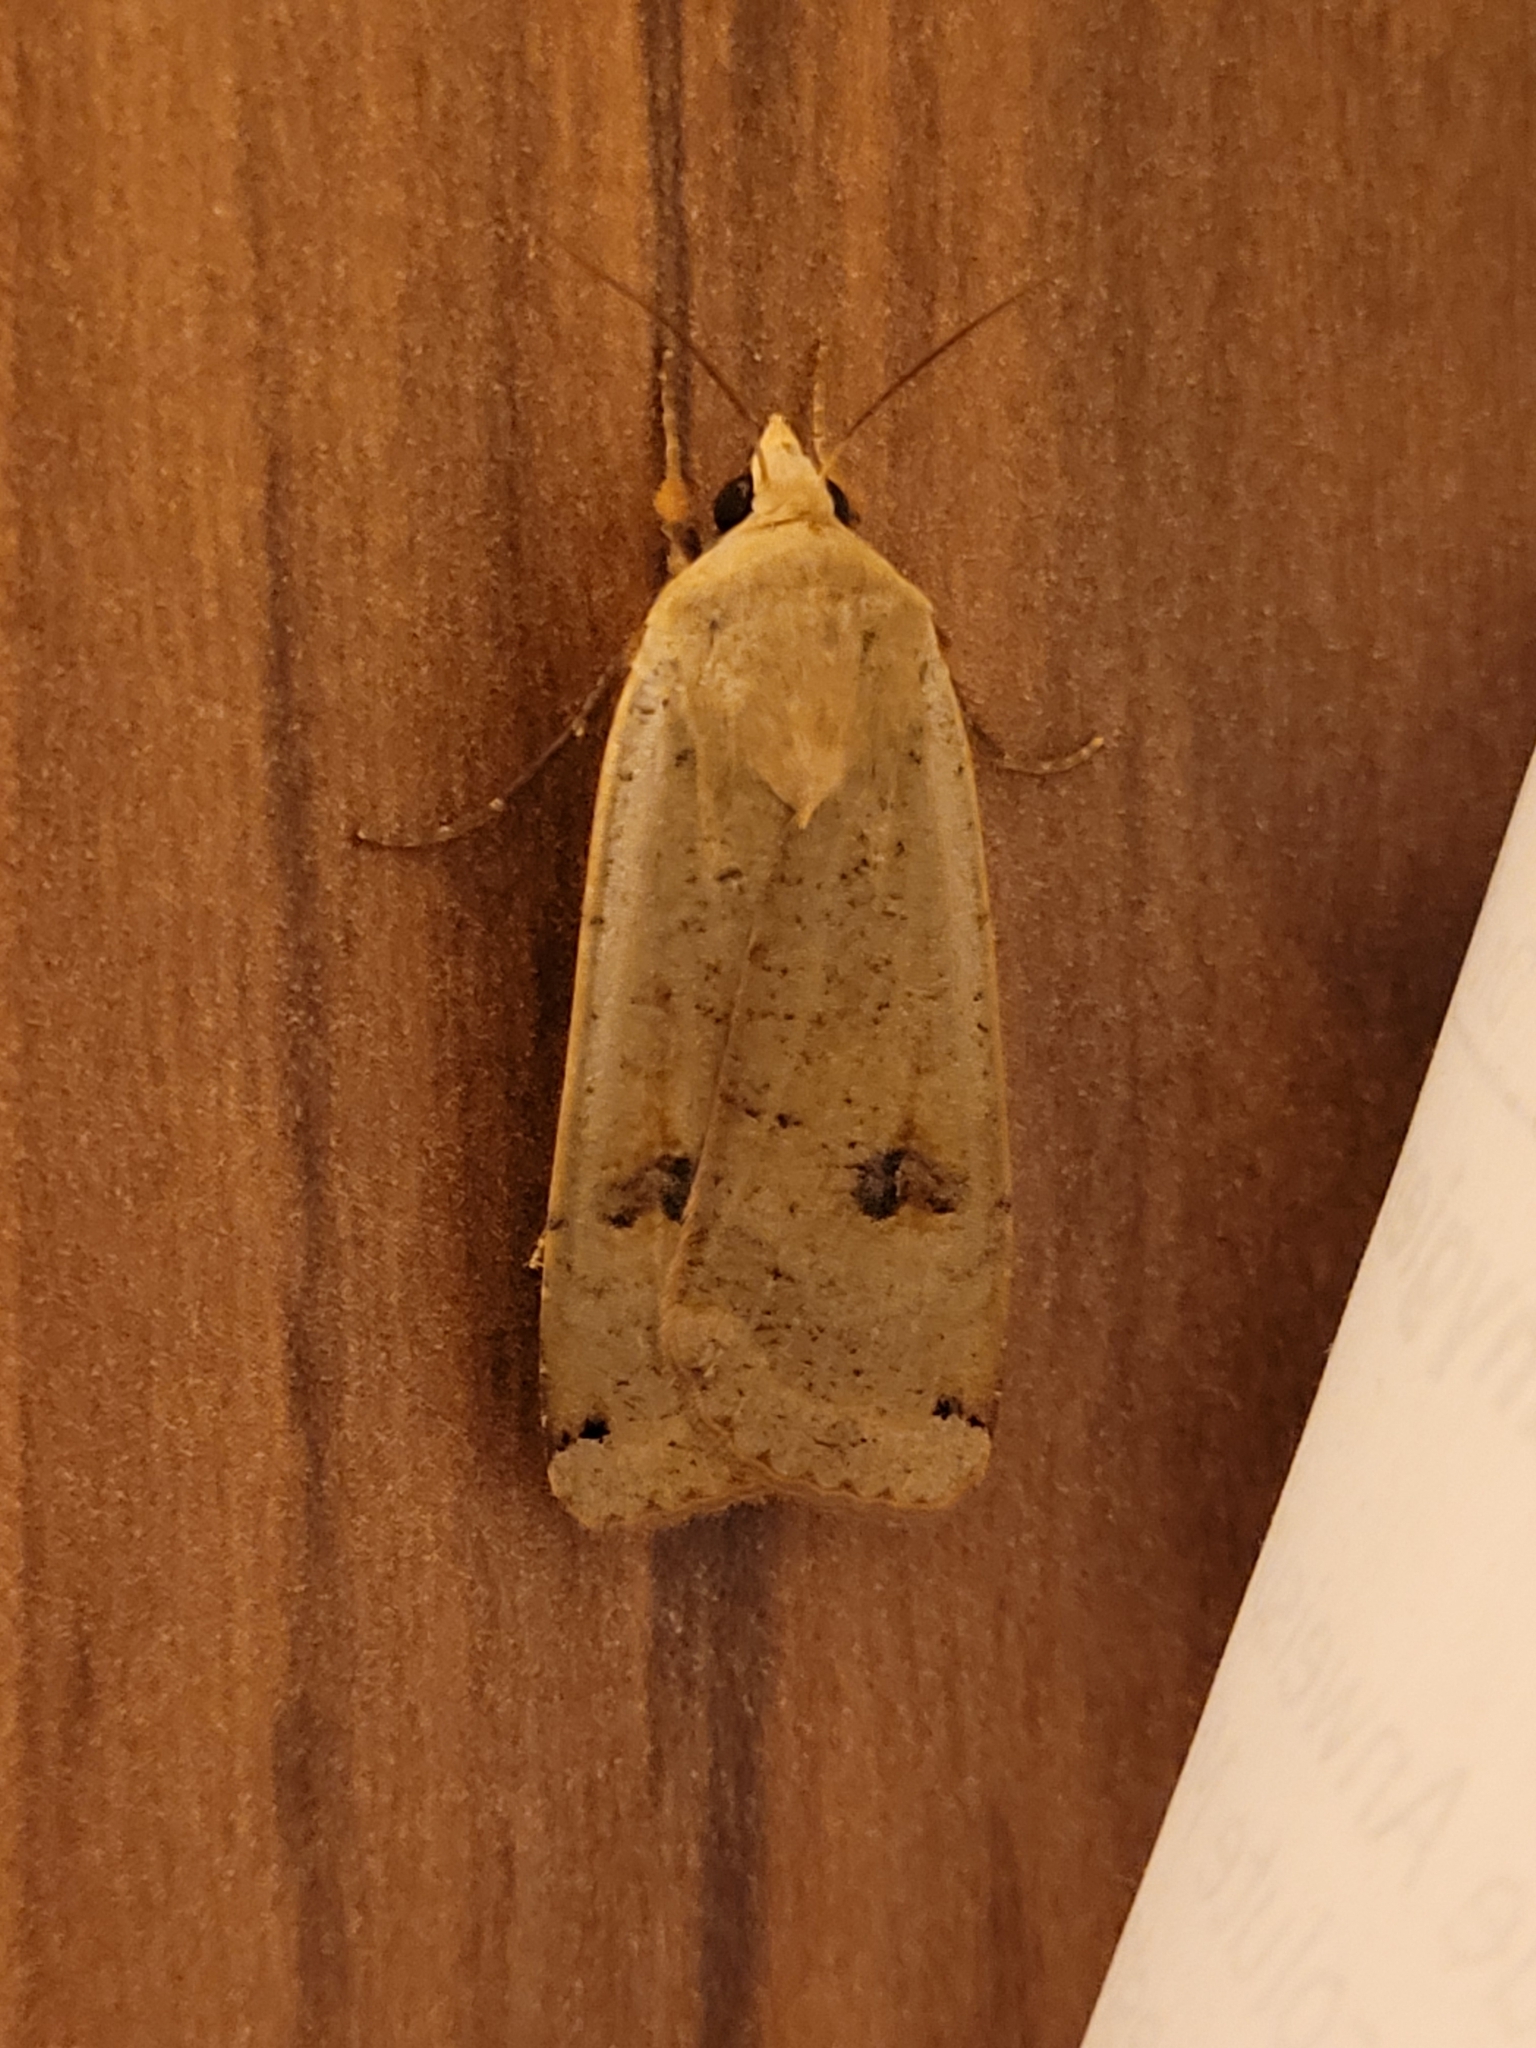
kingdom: Animalia
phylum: Arthropoda
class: Insecta
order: Lepidoptera
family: Noctuidae
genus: Noctua
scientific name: Noctua pronuba
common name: Large yellow underwing
